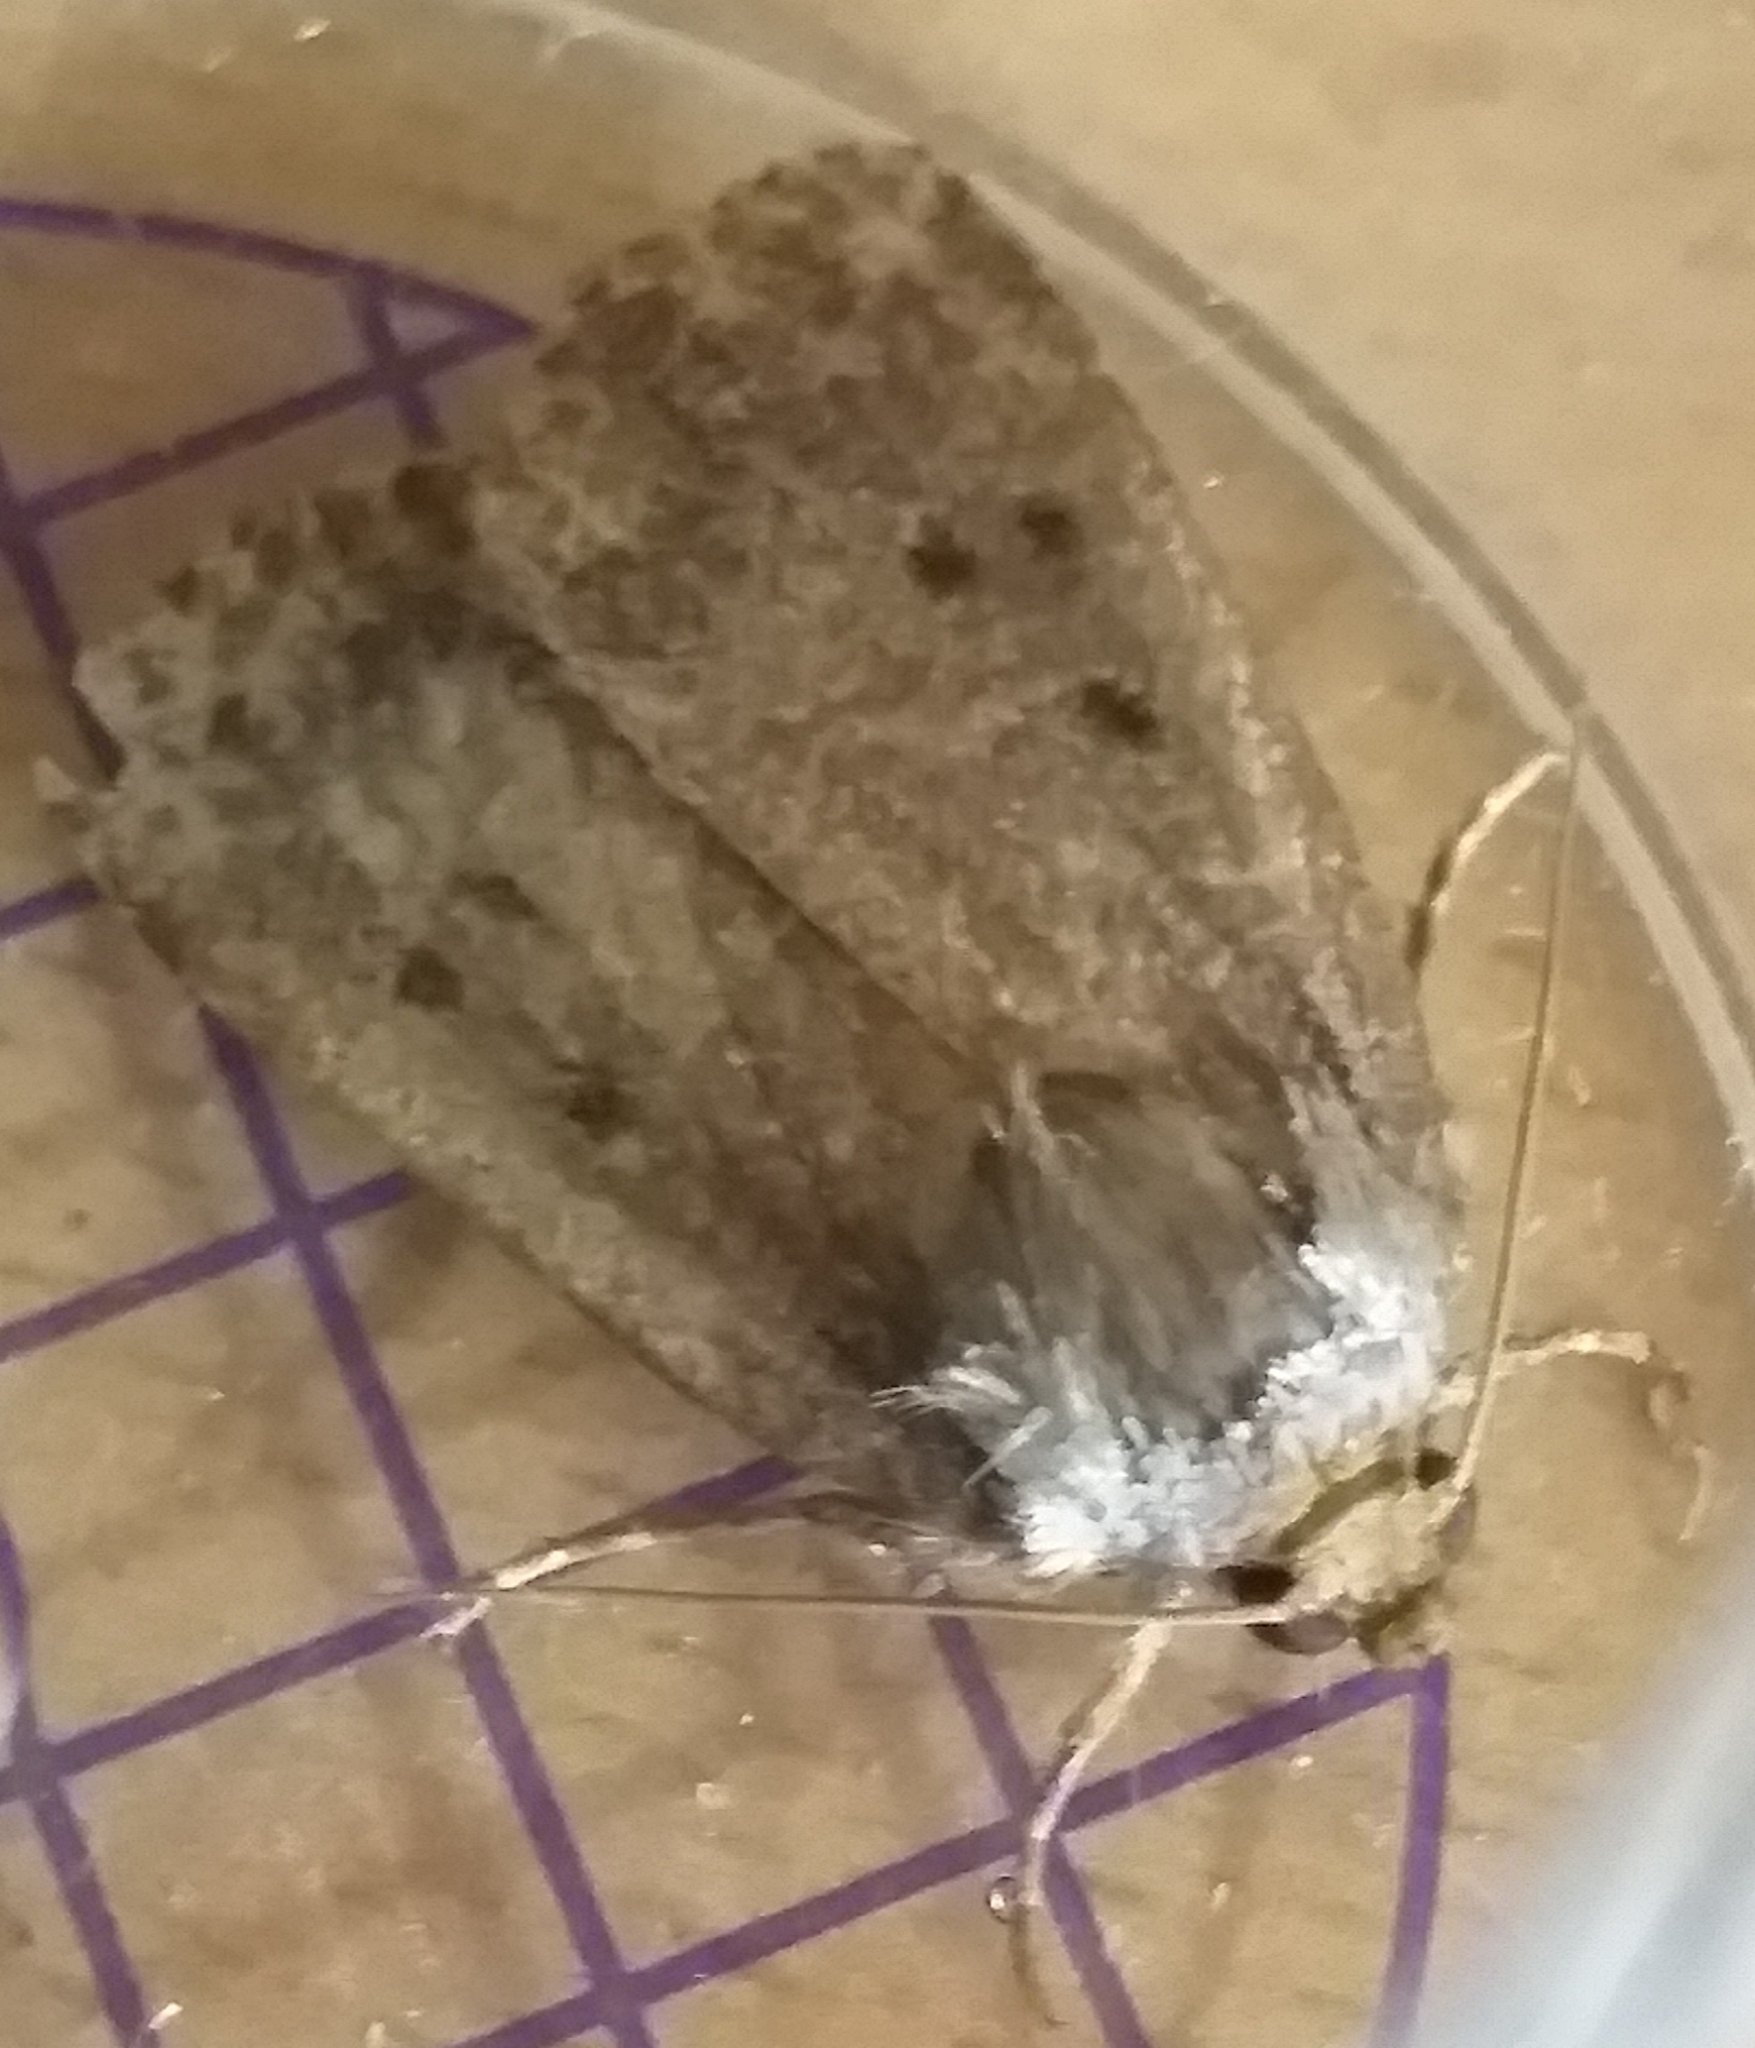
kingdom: Animalia
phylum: Arthropoda
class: Insecta
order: Lepidoptera
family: Noctuidae
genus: Amphipyra
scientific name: Amphipyra tragopoginis
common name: Mouse moth
